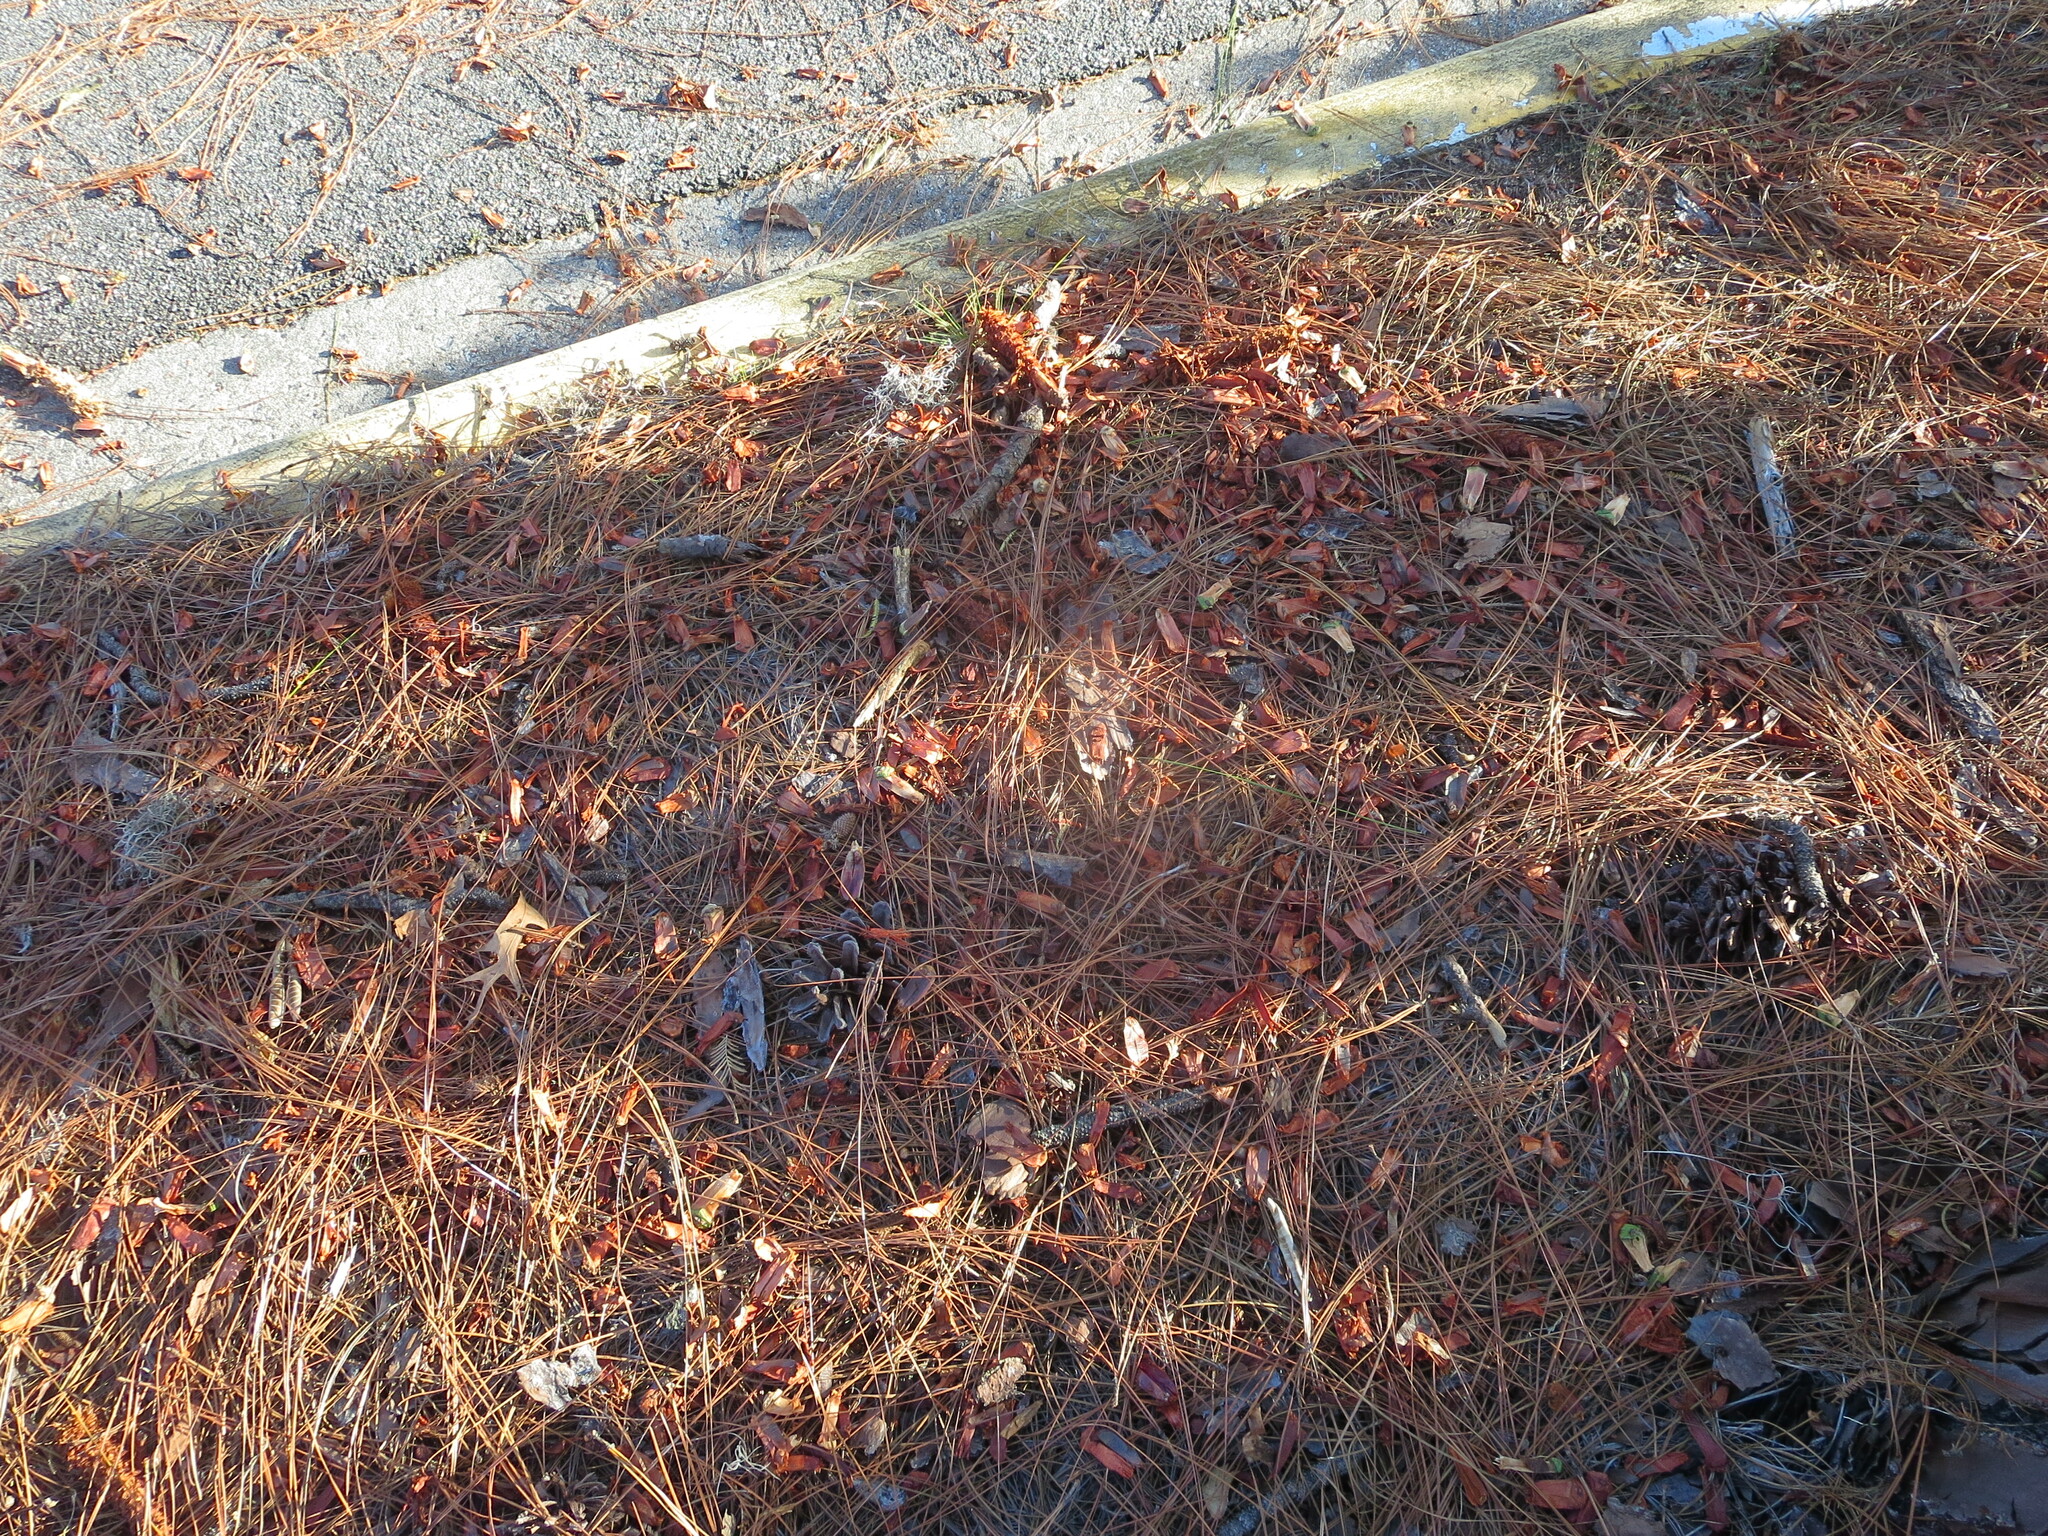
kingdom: Animalia
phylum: Chordata
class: Mammalia
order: Rodentia
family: Sciuridae
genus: Sciurus
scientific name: Sciurus carolinensis
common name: Eastern gray squirrel
